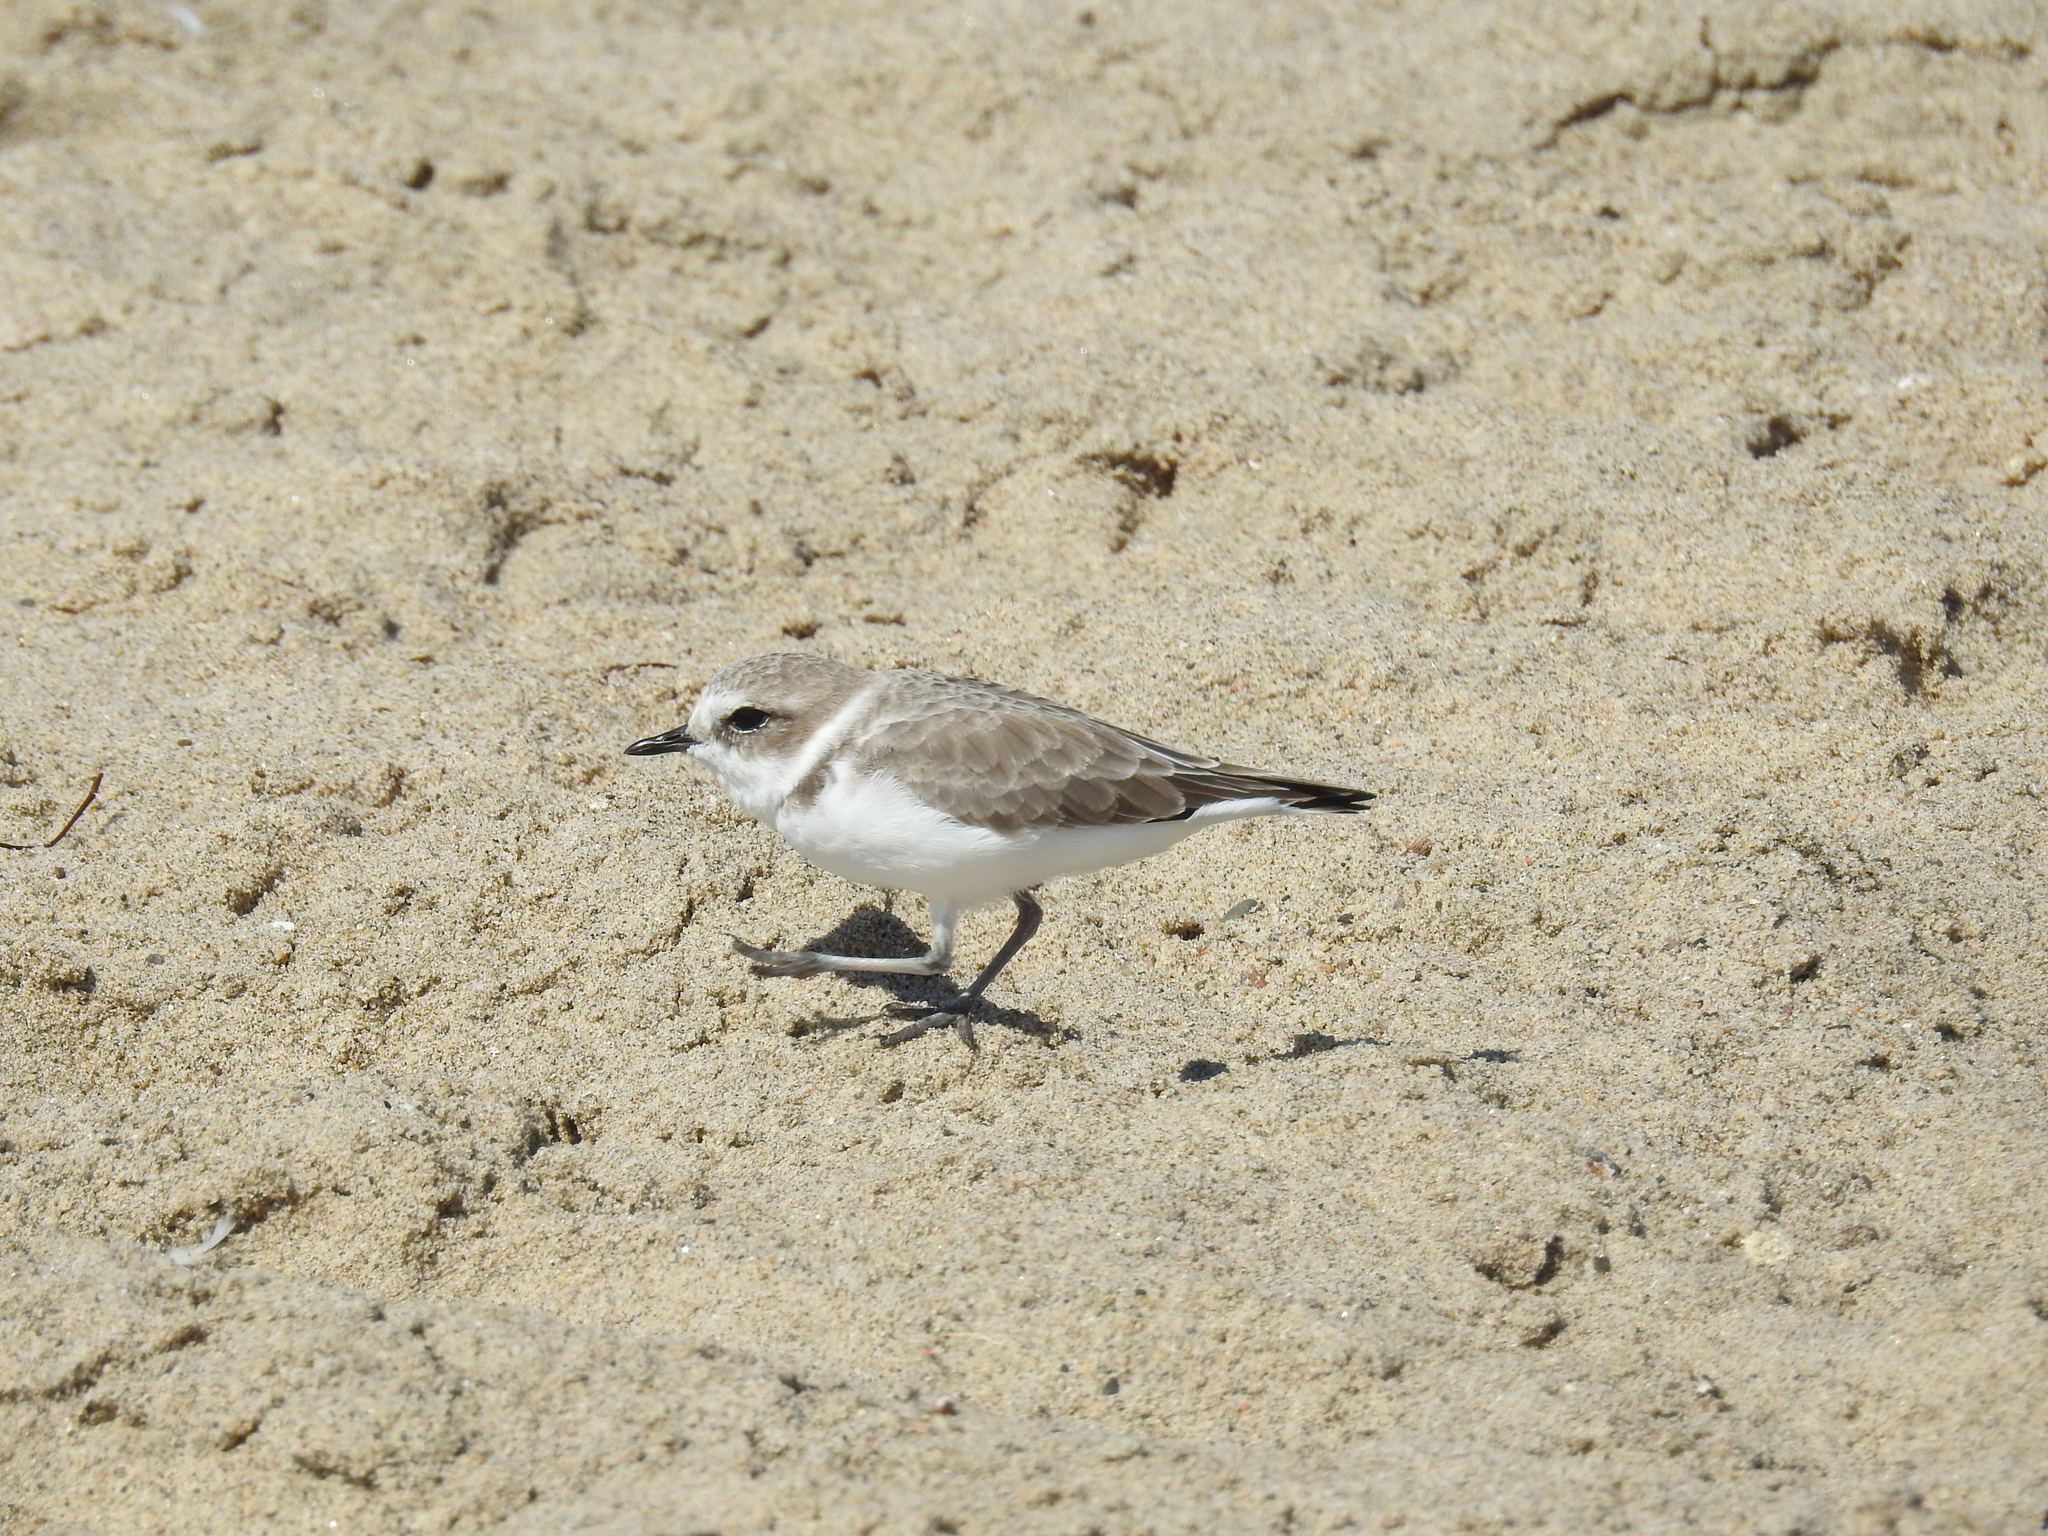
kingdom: Animalia
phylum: Chordata
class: Aves
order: Charadriiformes
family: Charadriidae
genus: Anarhynchus
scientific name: Anarhynchus
